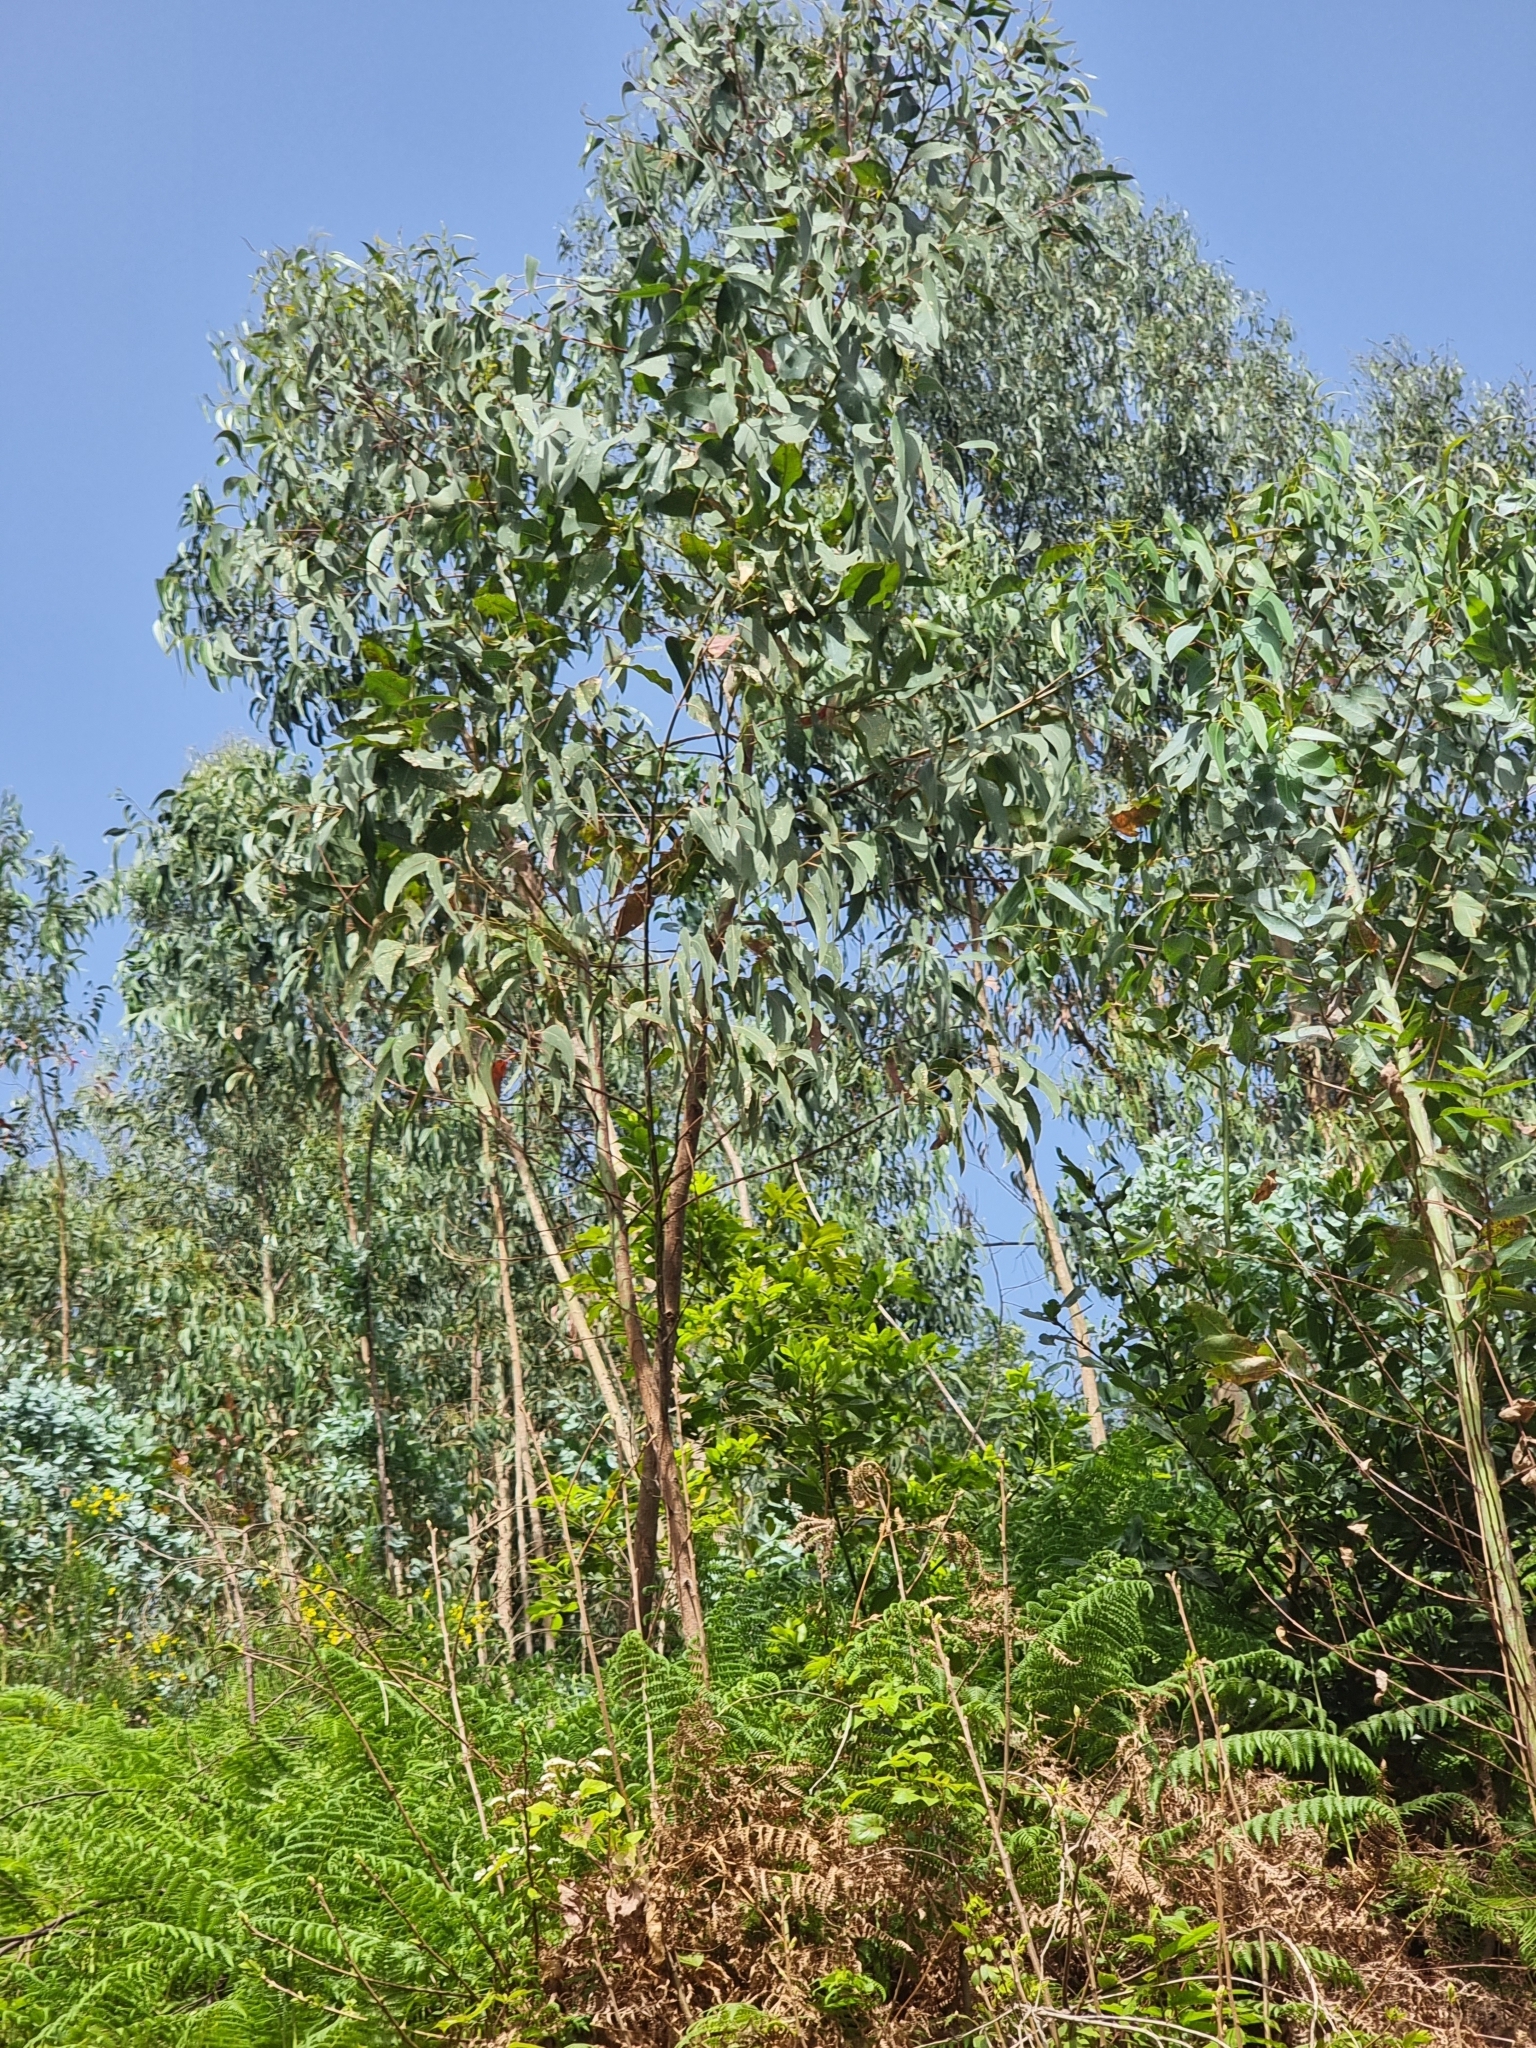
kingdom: Plantae
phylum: Tracheophyta
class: Magnoliopsida
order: Myrtales
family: Myrtaceae
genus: Eucalyptus
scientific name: Eucalyptus globulus
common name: Southern blue-gum
